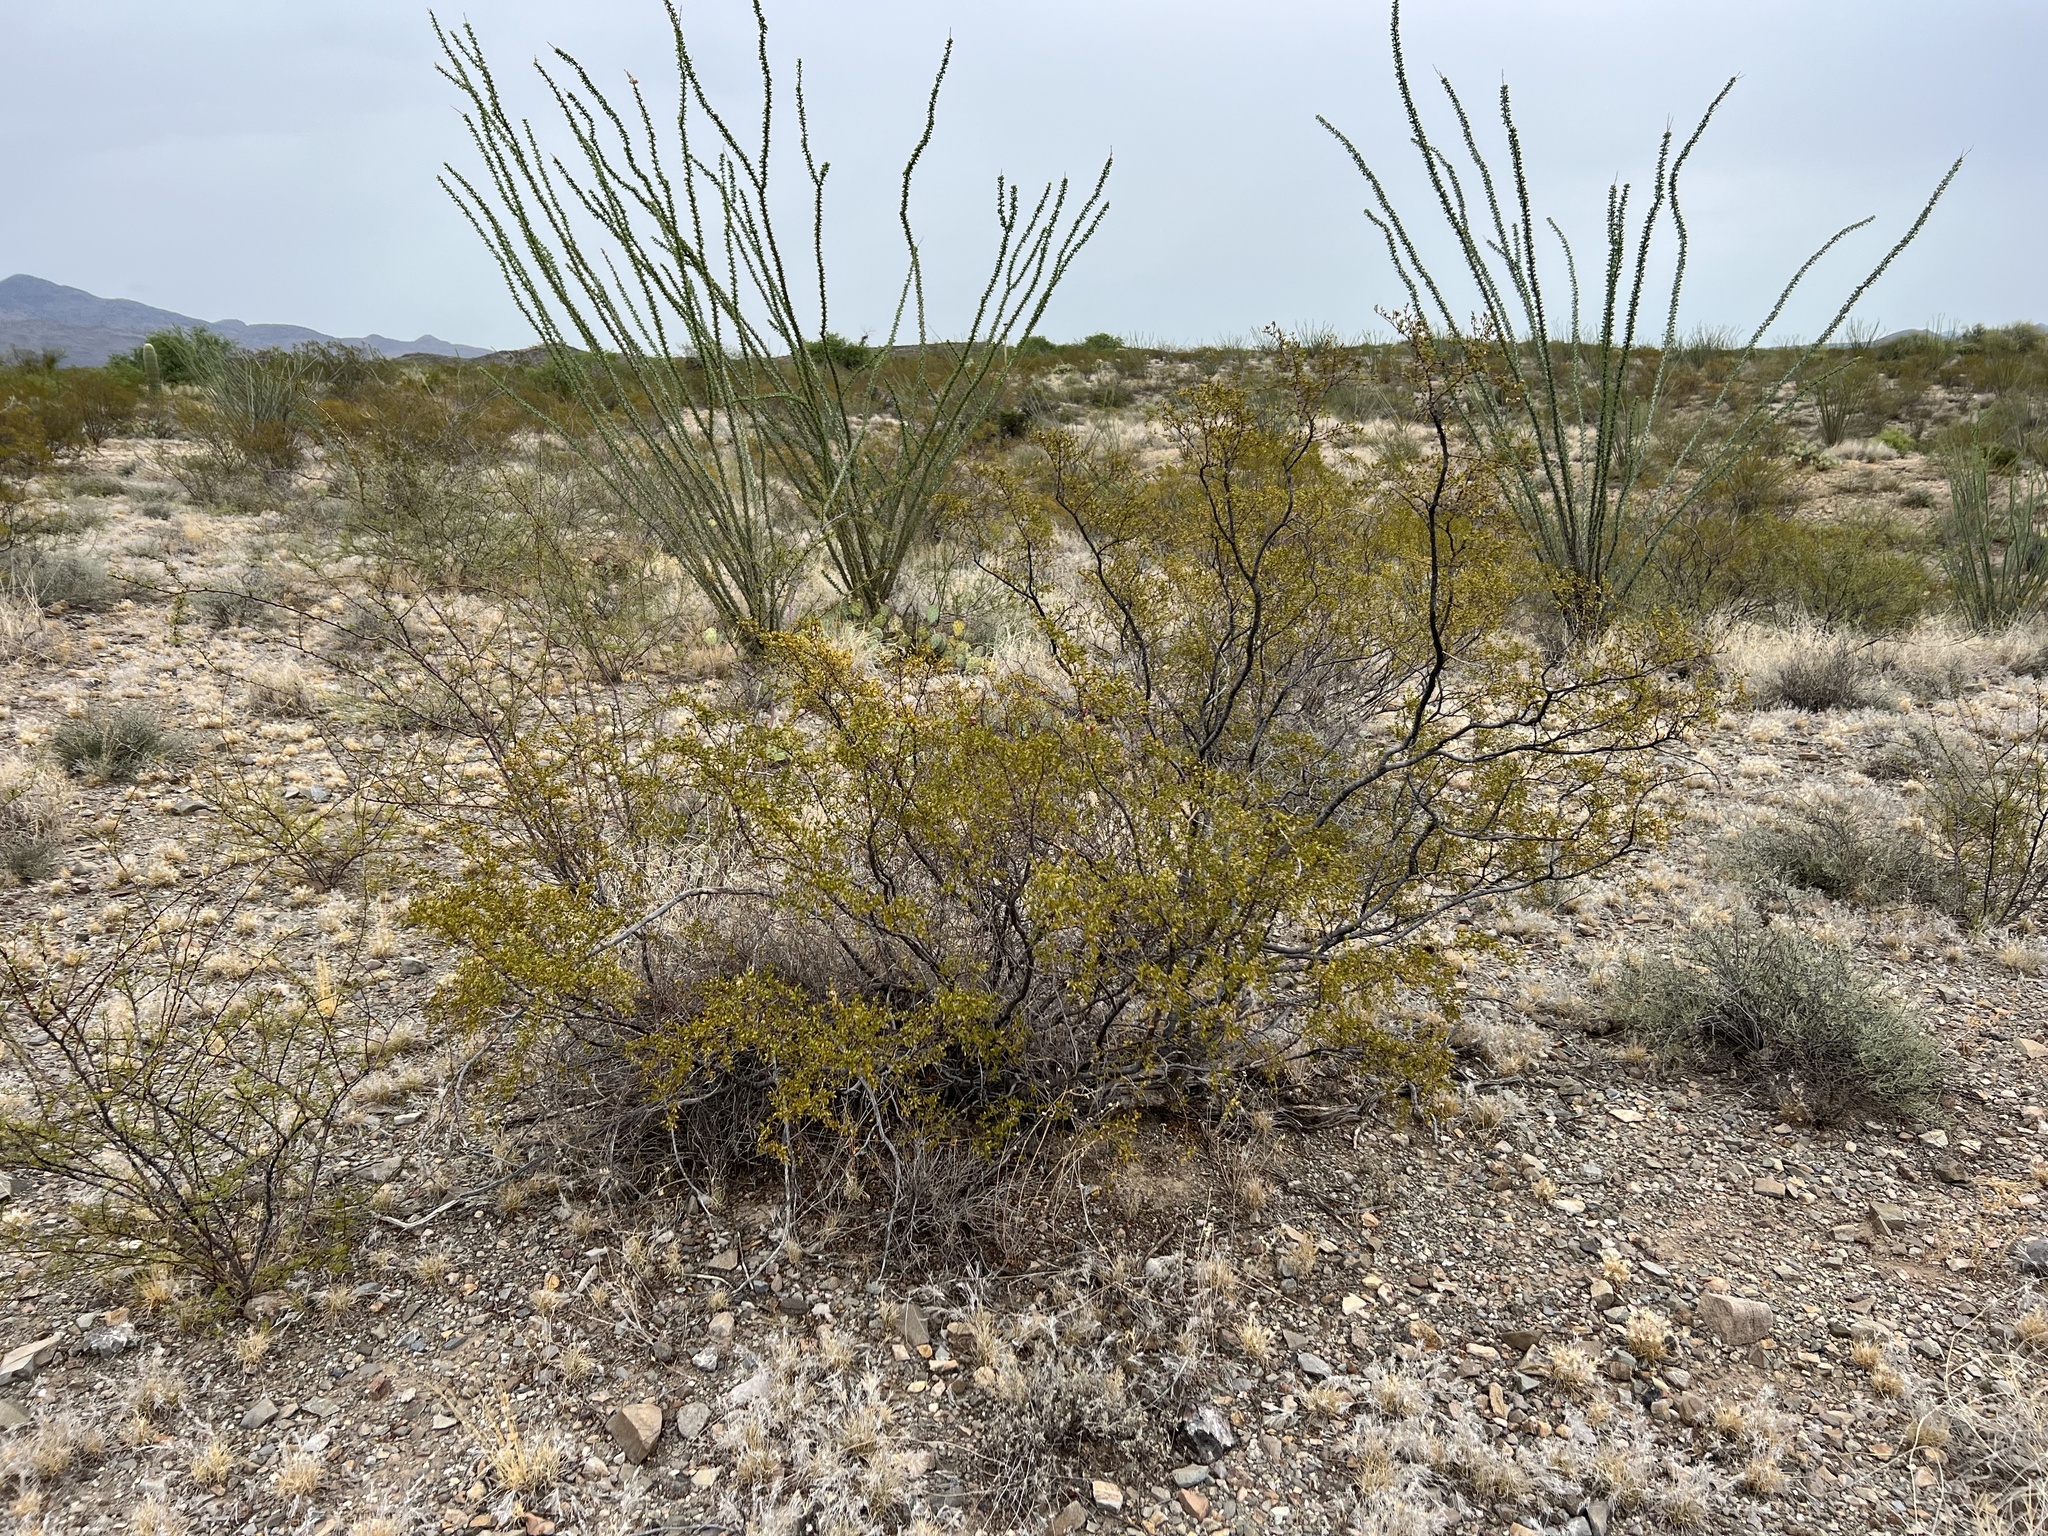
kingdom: Plantae
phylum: Tracheophyta
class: Magnoliopsida
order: Zygophyllales
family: Zygophyllaceae
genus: Larrea
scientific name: Larrea tridentata
